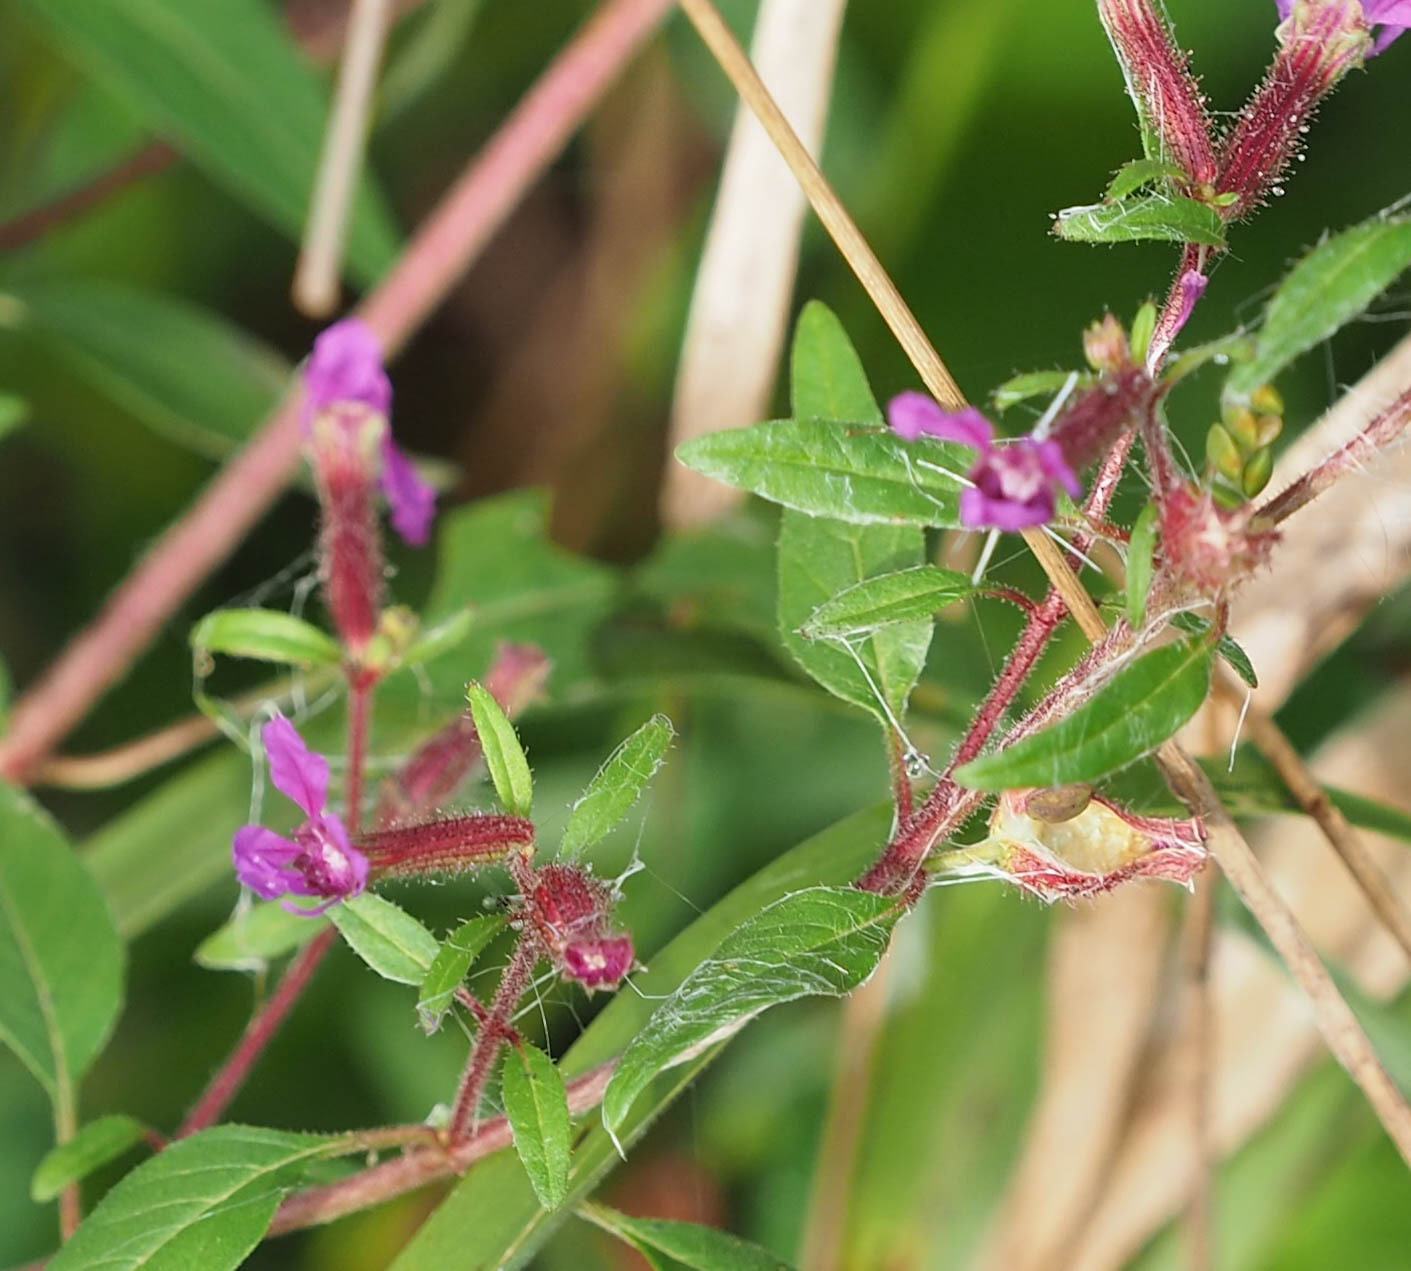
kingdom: Plantae
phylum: Tracheophyta
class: Magnoliopsida
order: Myrtales
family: Lythraceae
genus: Cuphea
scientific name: Cuphea viscosissima
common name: Clammy cuphea
